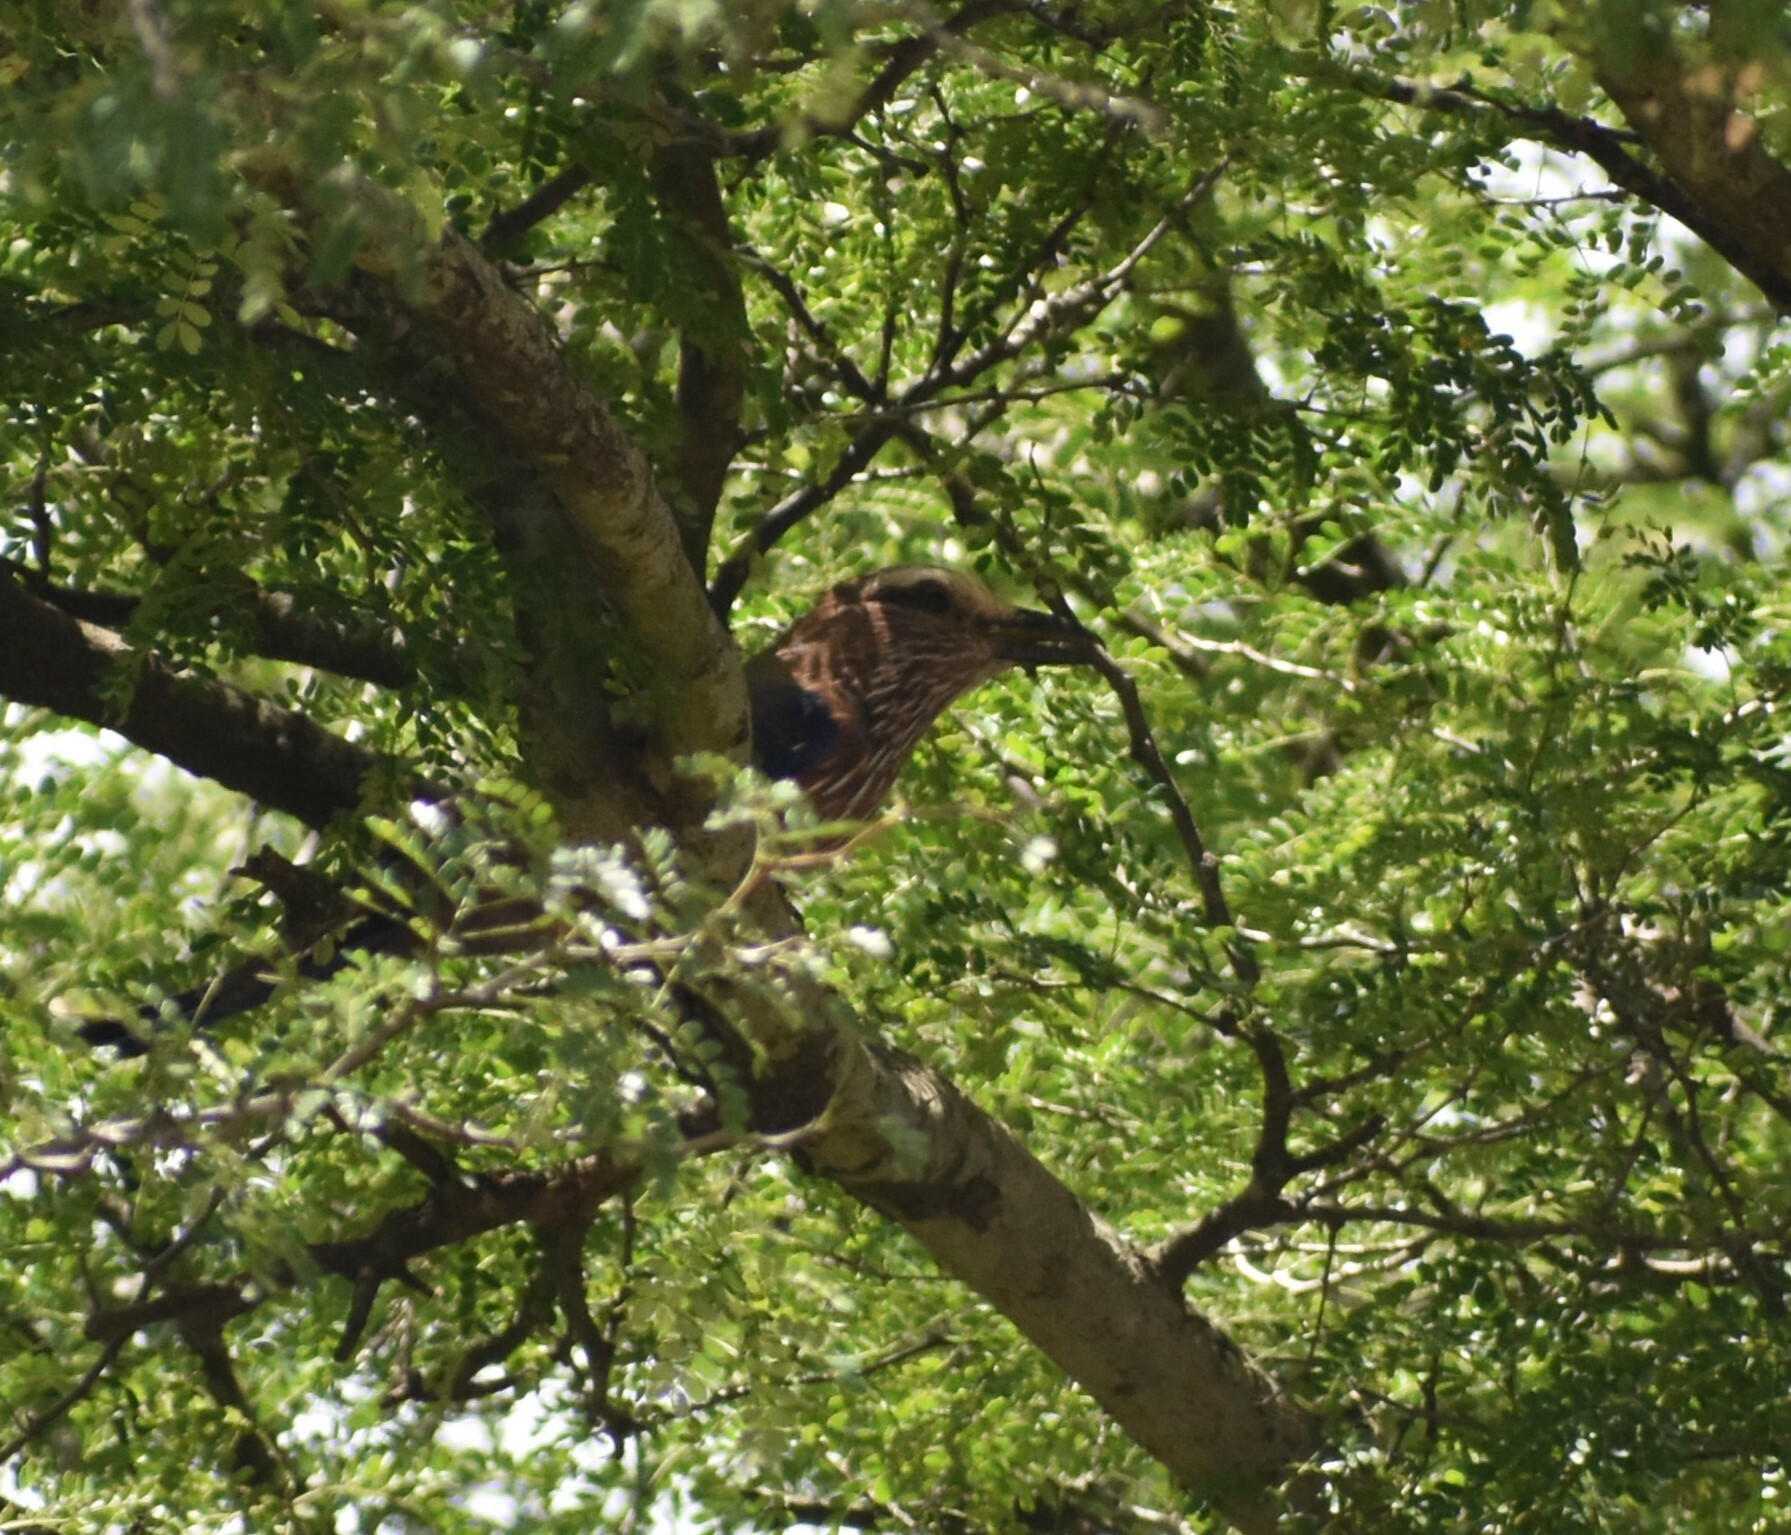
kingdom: Animalia
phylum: Chordata
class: Aves
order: Coraciiformes
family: Coraciidae
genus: Coracias
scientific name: Coracias naevius
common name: Purple roller
